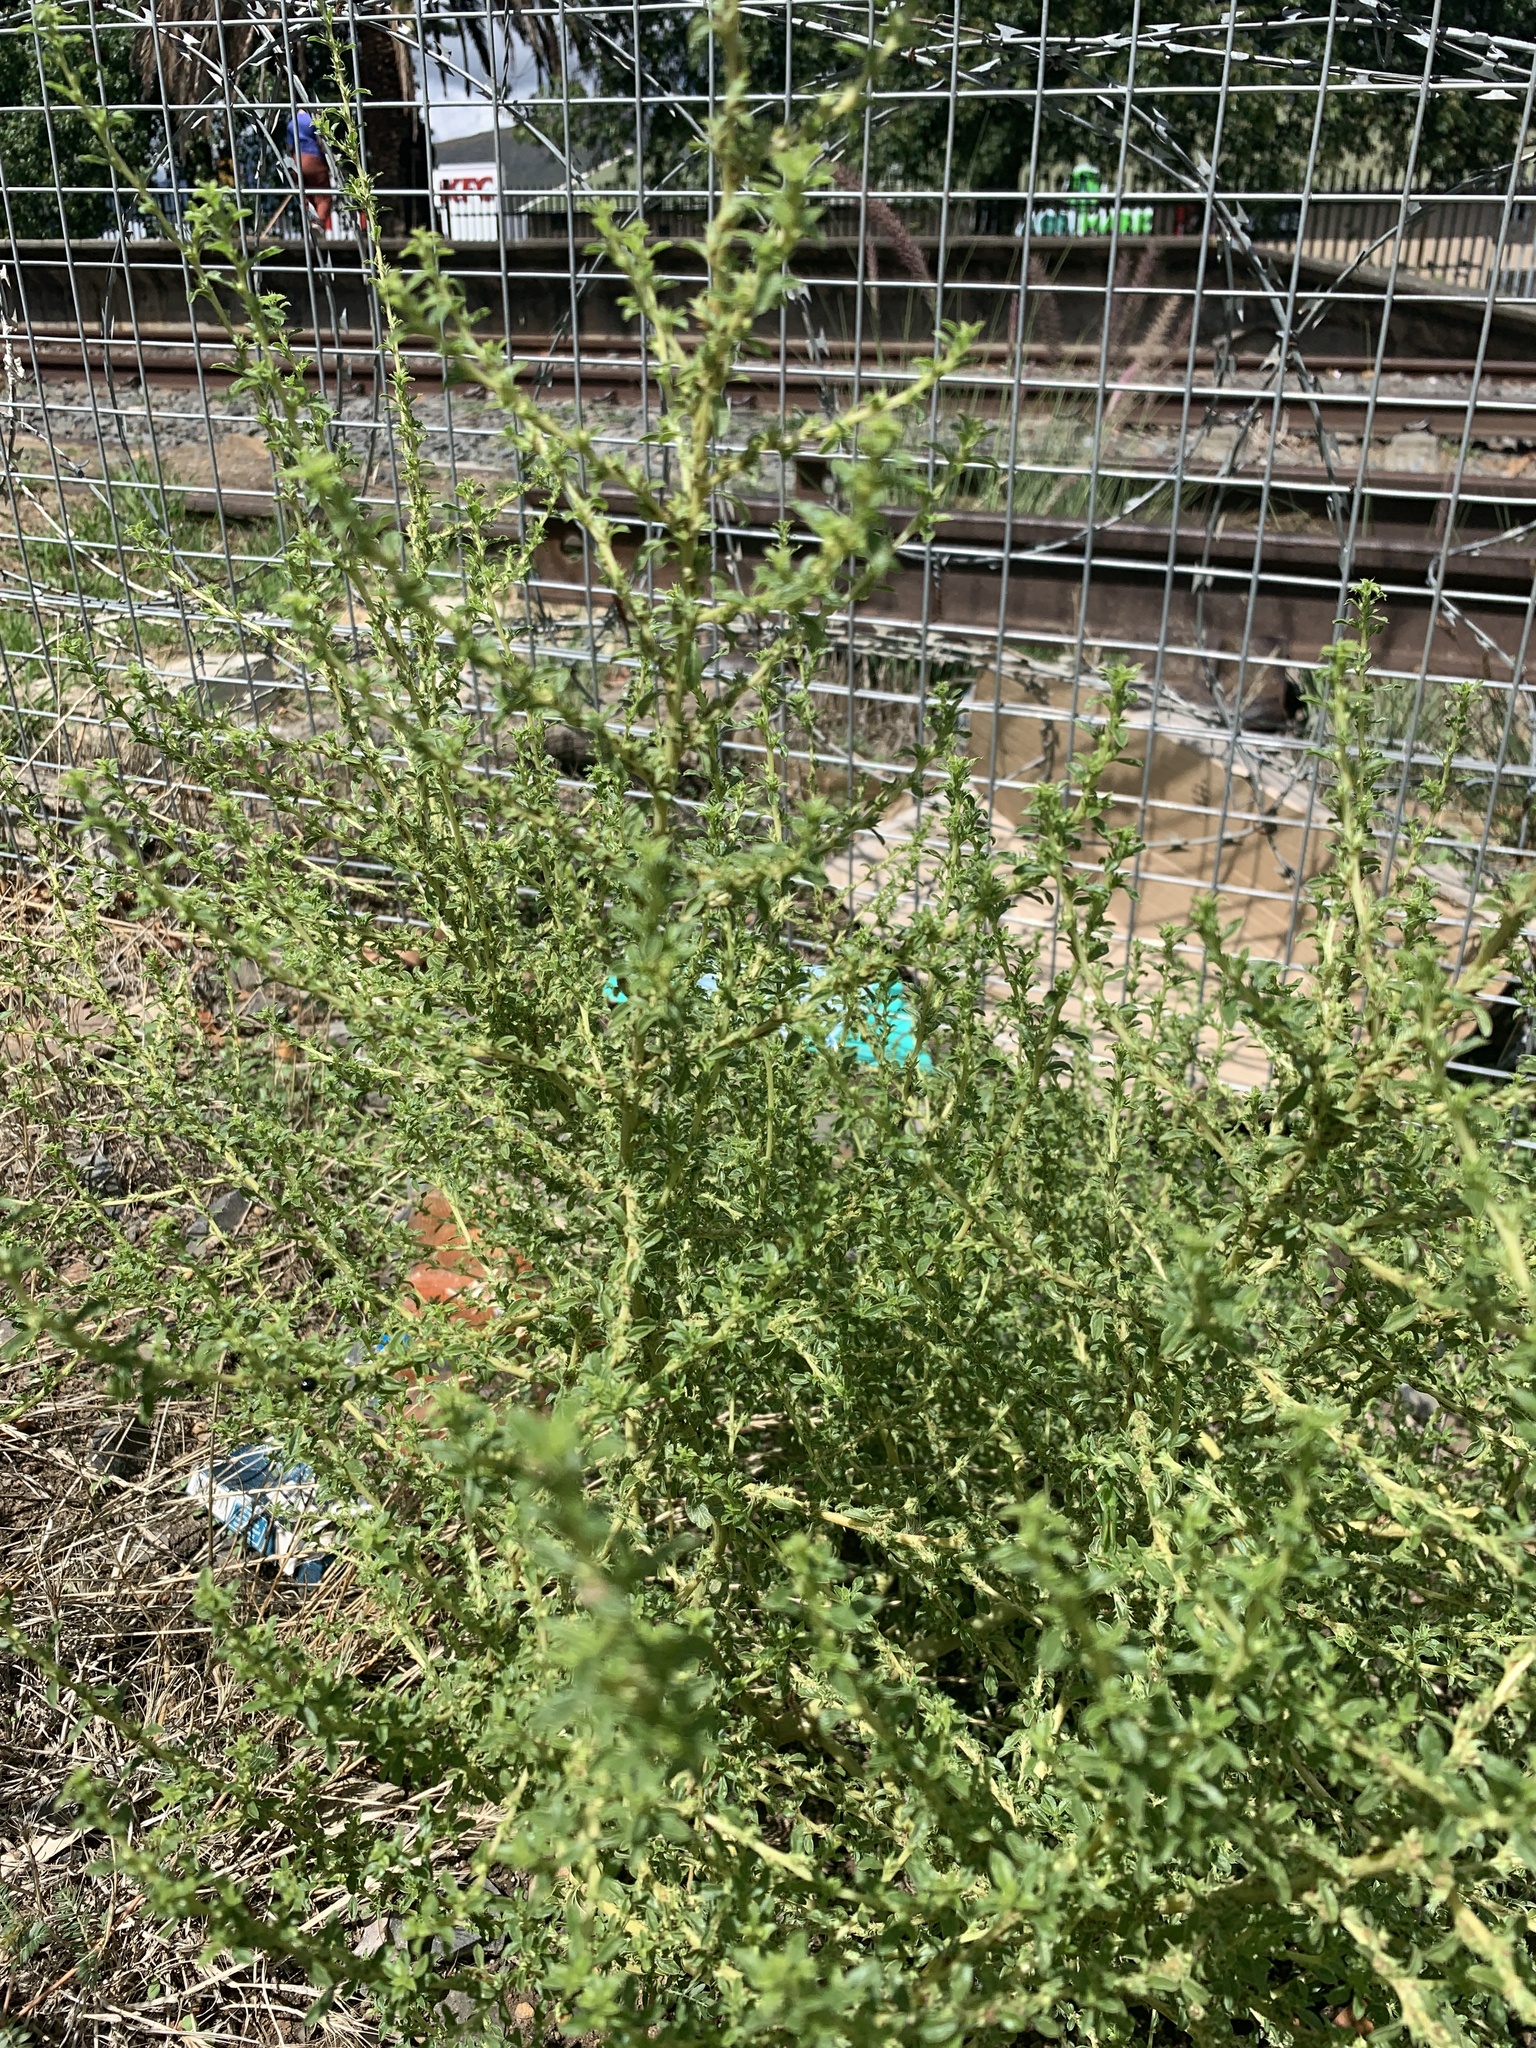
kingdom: Plantae
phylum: Tracheophyta
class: Magnoliopsida
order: Caryophyllales
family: Amaranthaceae
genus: Amaranthus
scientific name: Amaranthus albus
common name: White pigweed
